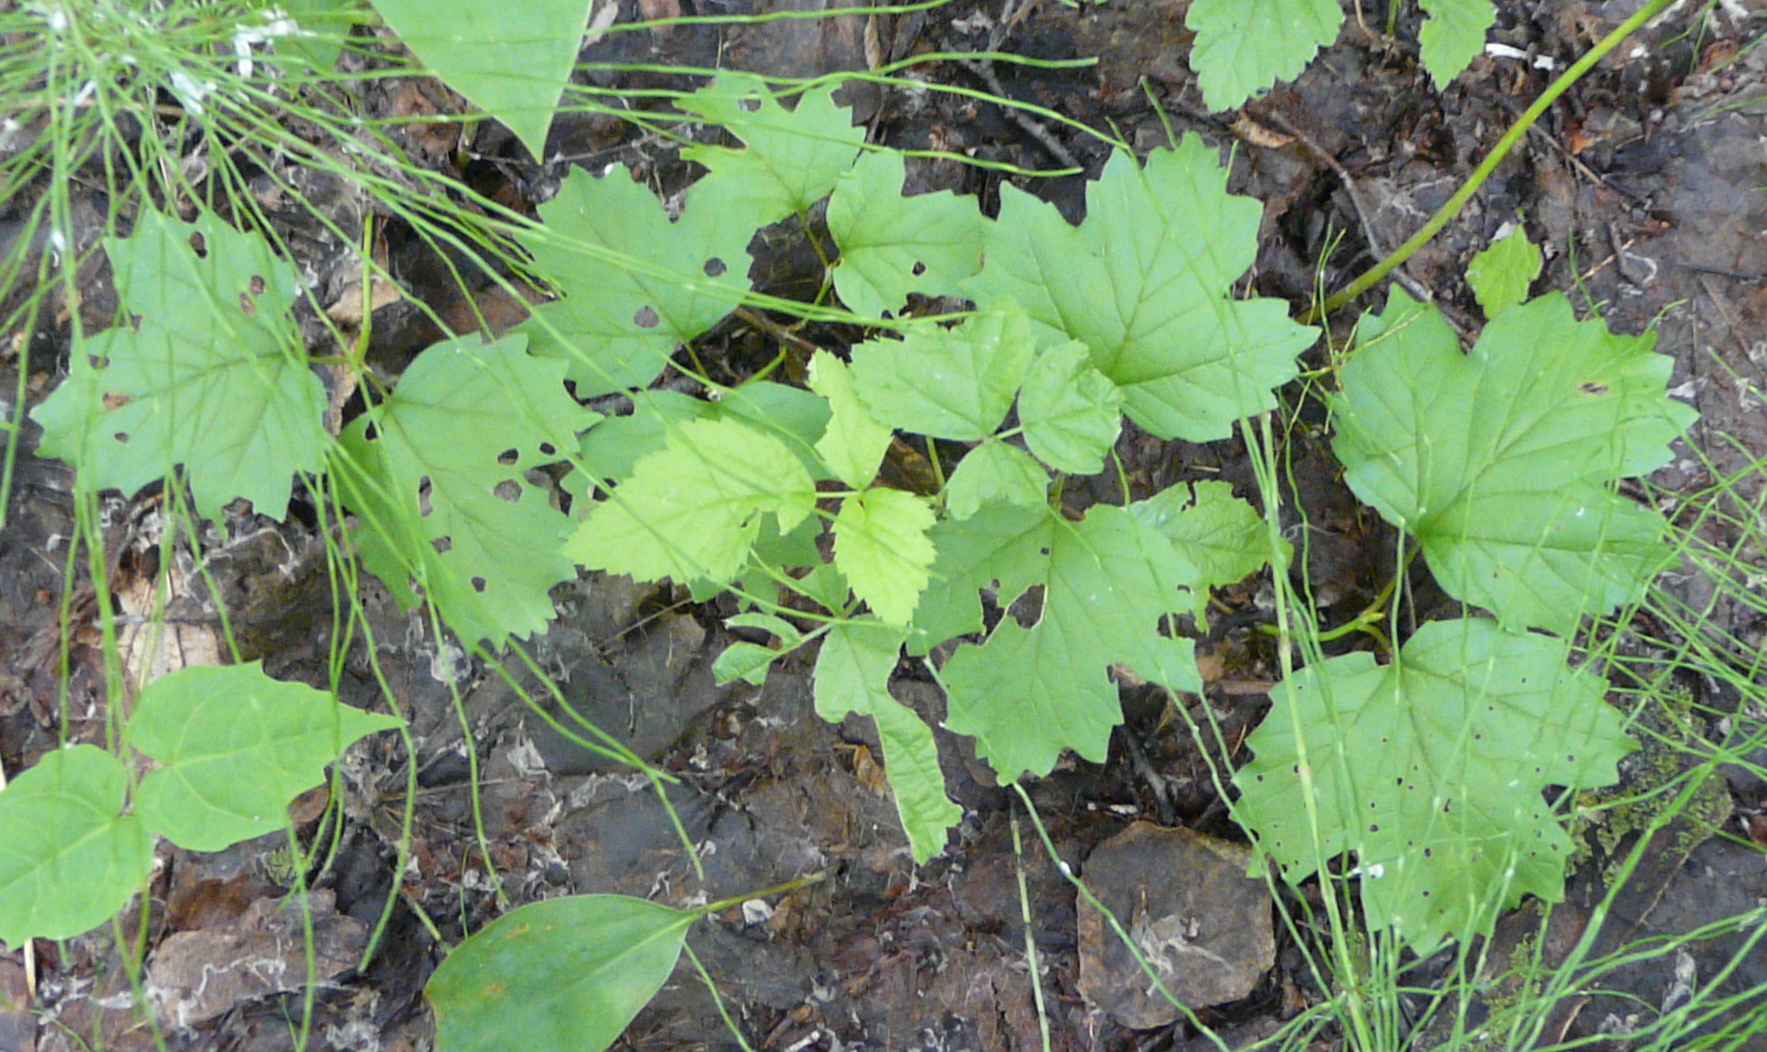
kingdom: Plantae
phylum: Tracheophyta
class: Magnoliopsida
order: Dipsacales
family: Viburnaceae
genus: Viburnum
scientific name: Viburnum opulus
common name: Guelder-rose
